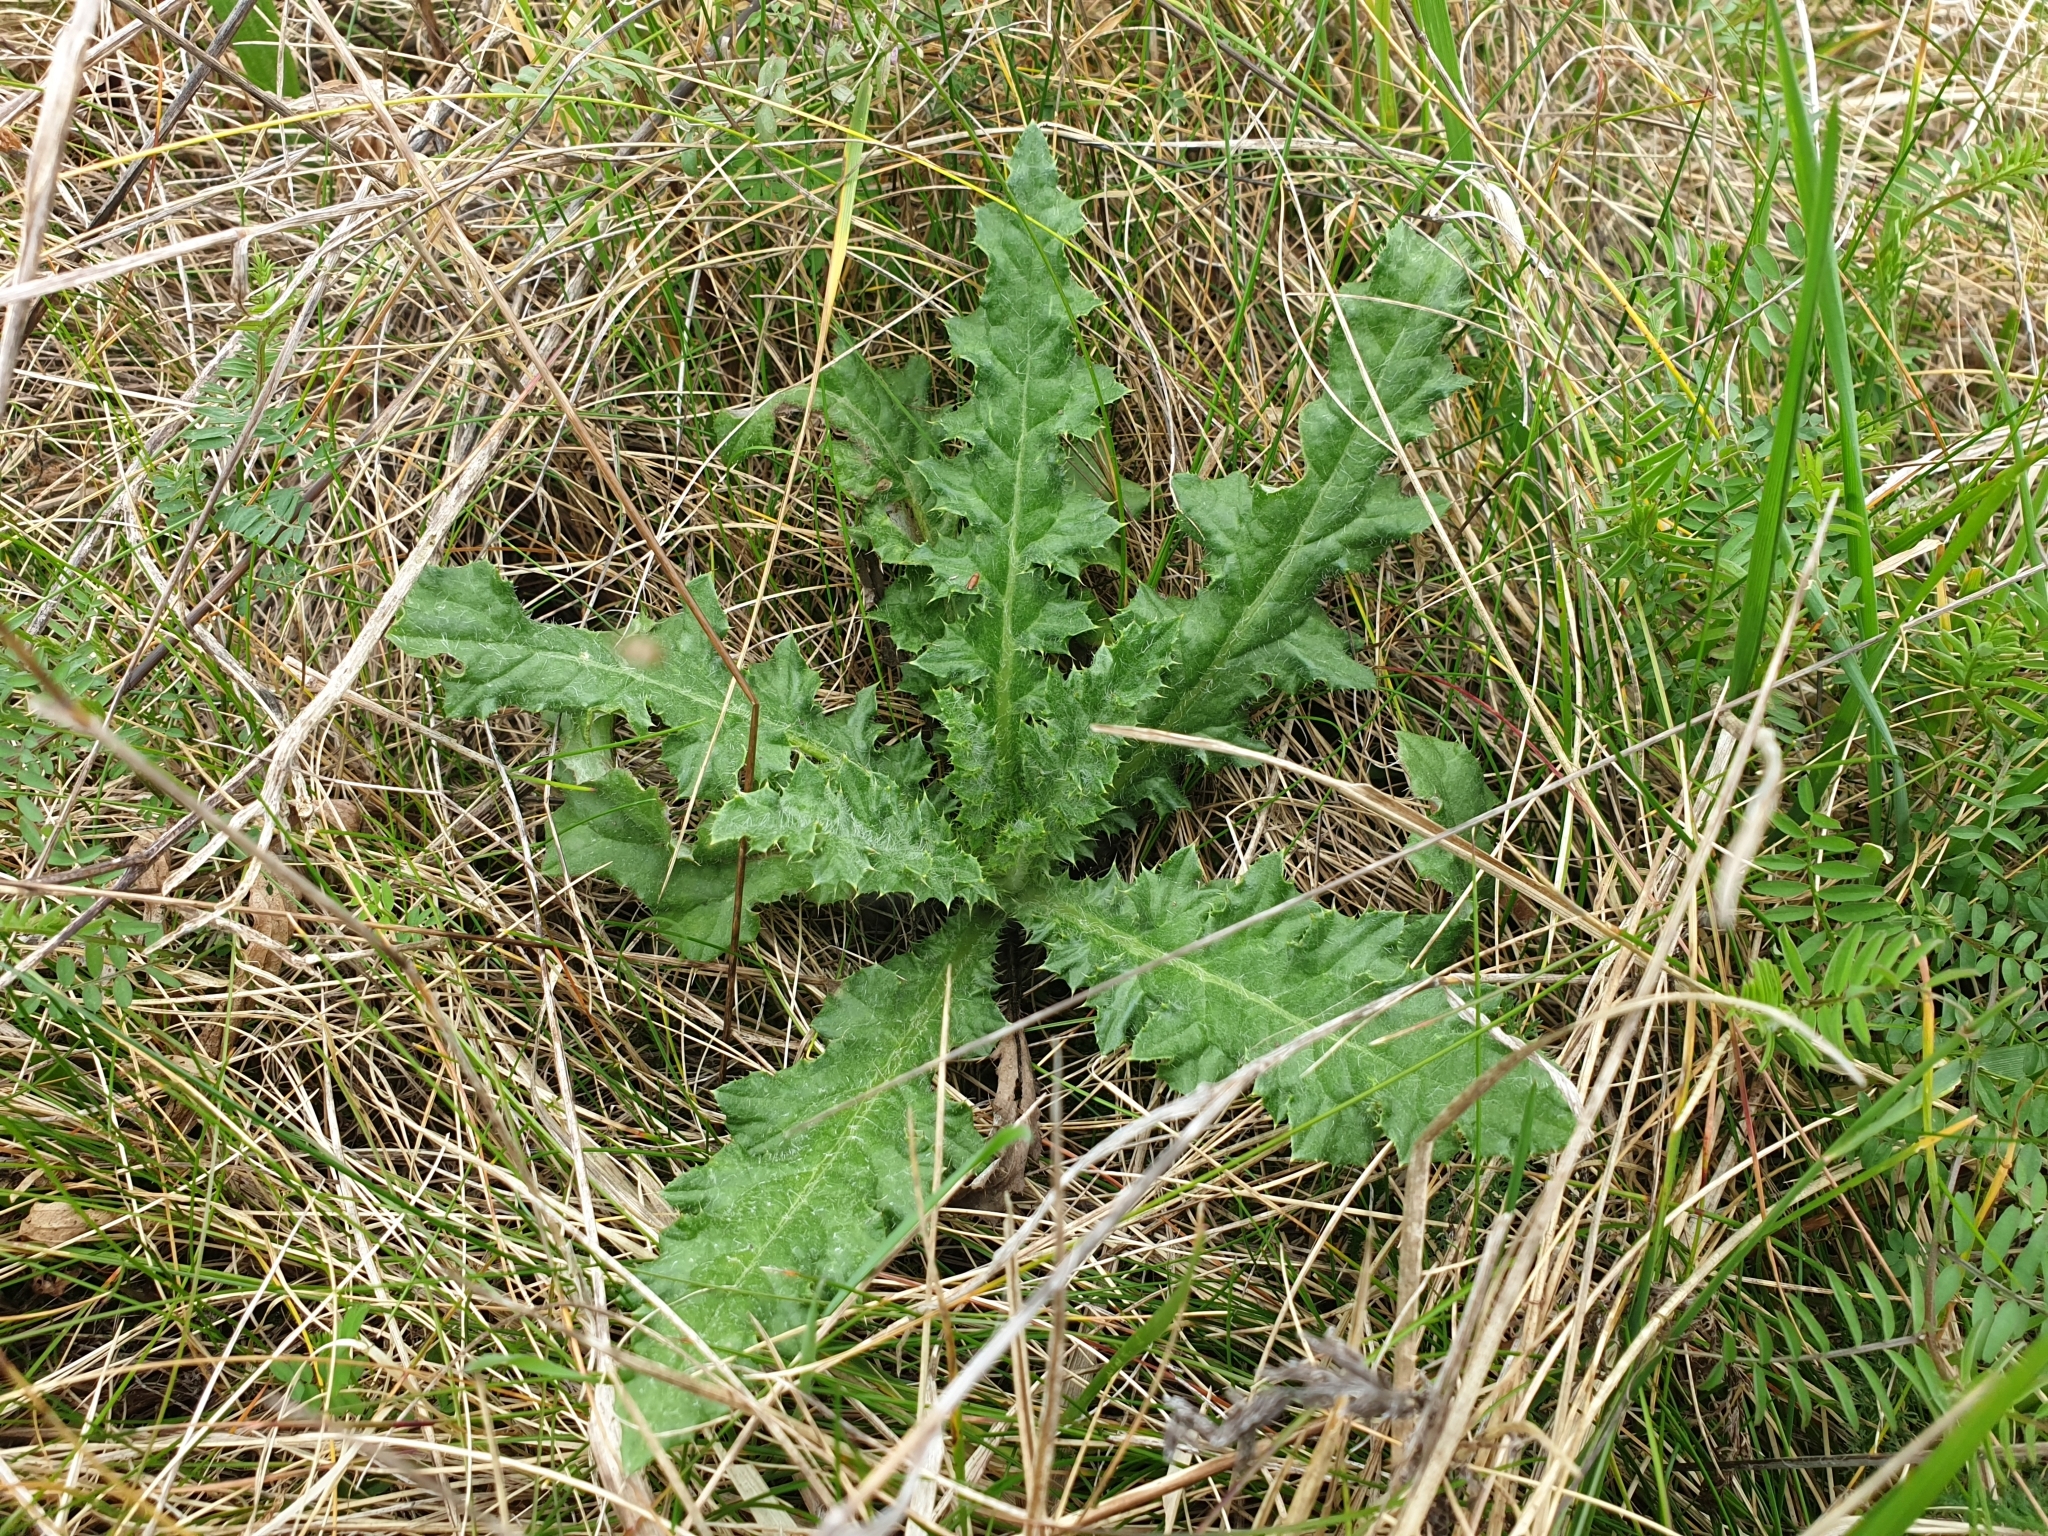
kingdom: Plantae
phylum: Tracheophyta
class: Magnoliopsida
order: Asterales
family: Asteraceae
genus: Cirsium
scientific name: Cirsium arvense
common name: Creeping thistle
